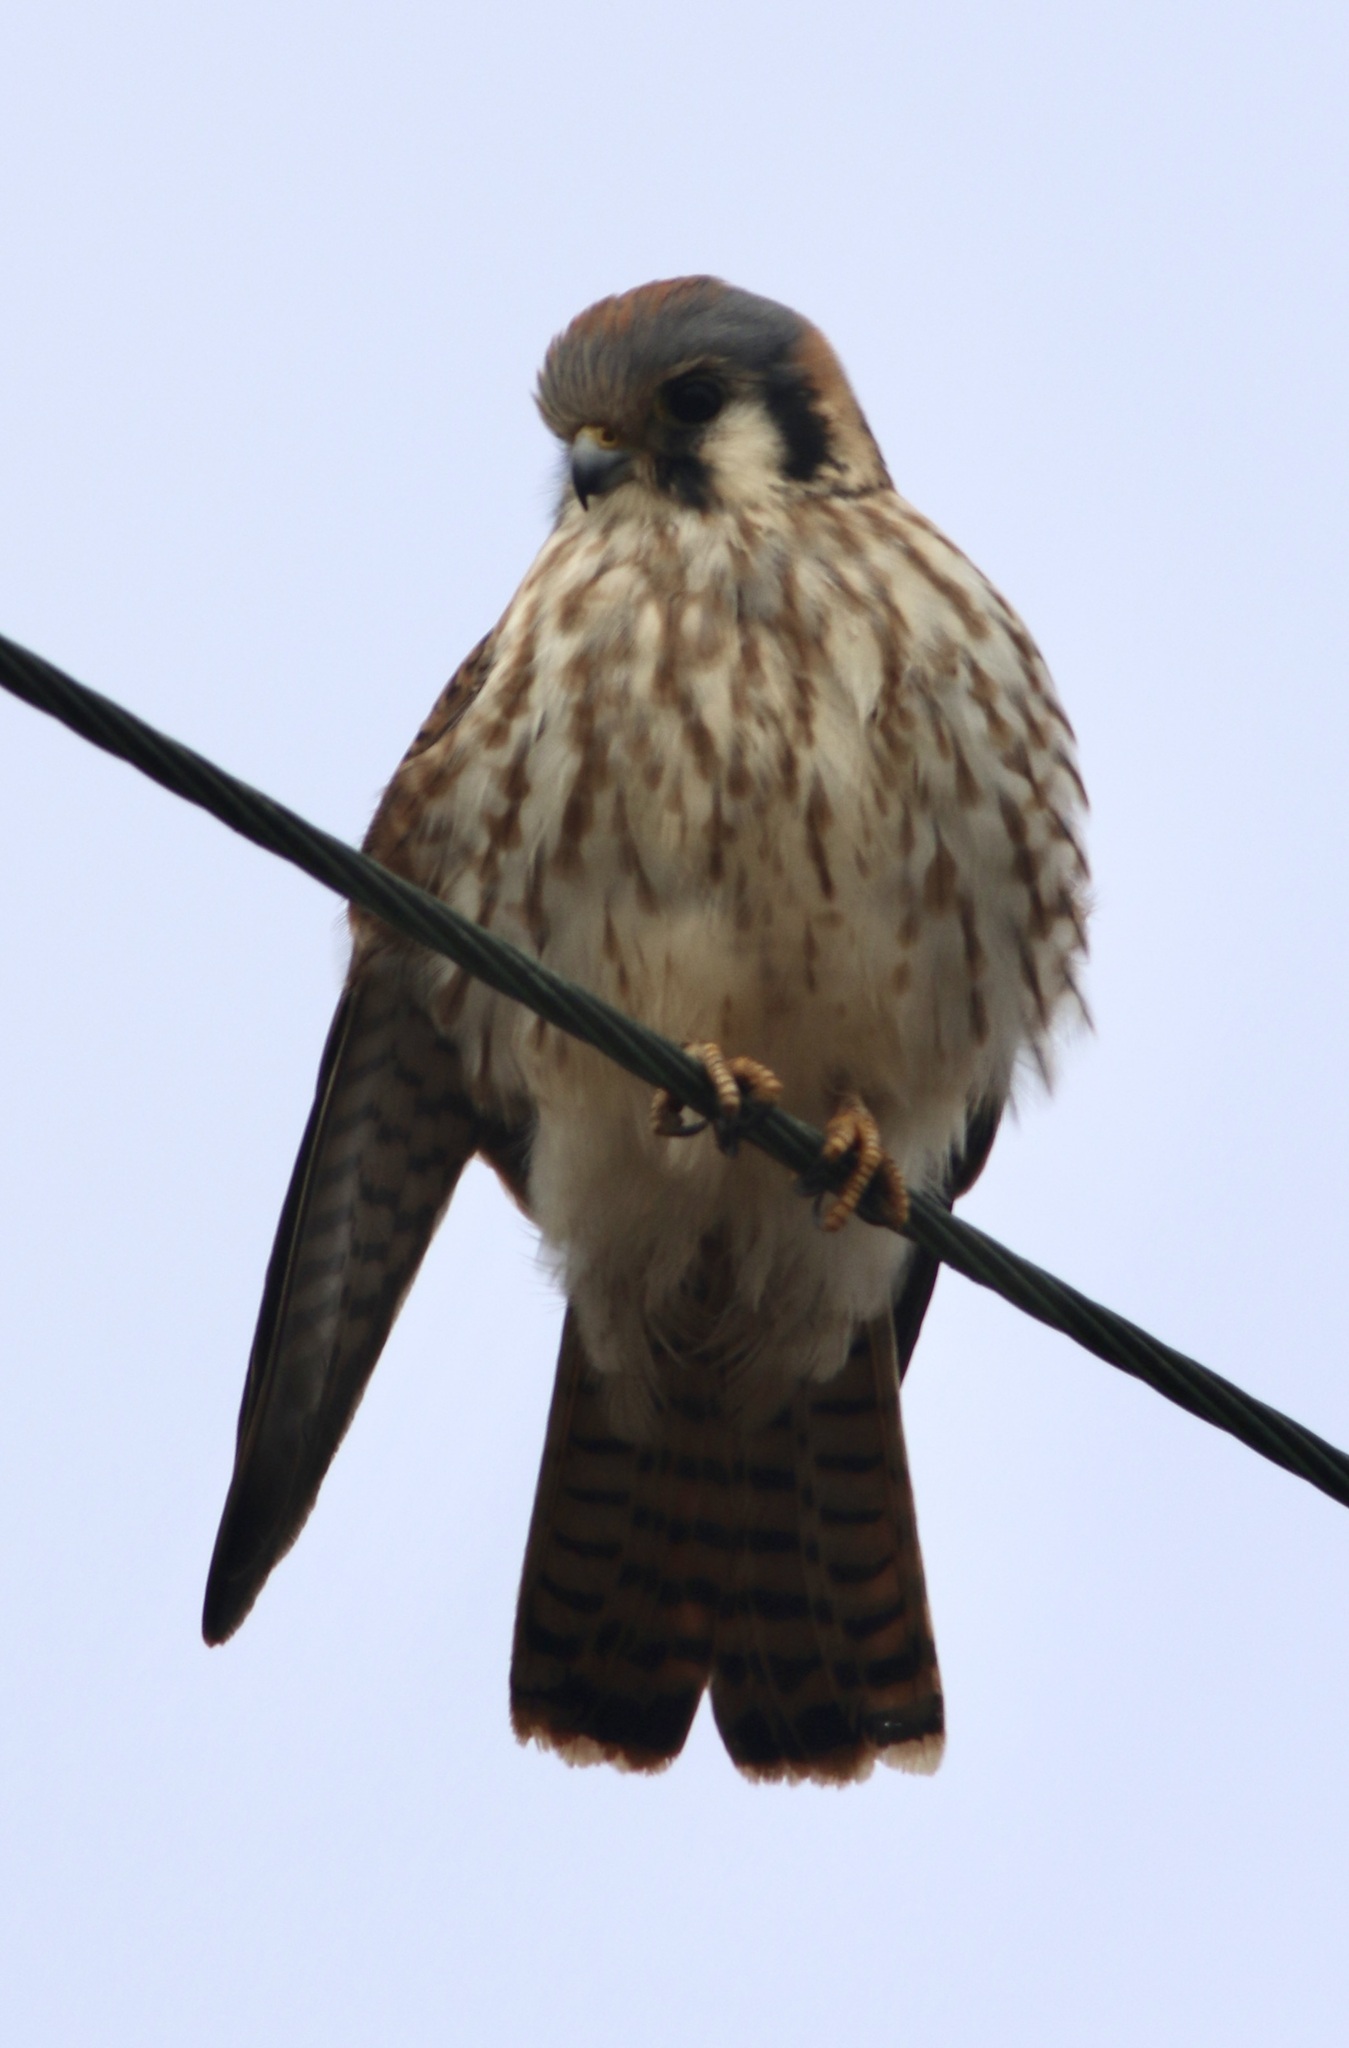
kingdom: Animalia
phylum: Chordata
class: Aves
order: Falconiformes
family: Falconidae
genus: Falco
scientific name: Falco sparverius
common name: American kestrel
